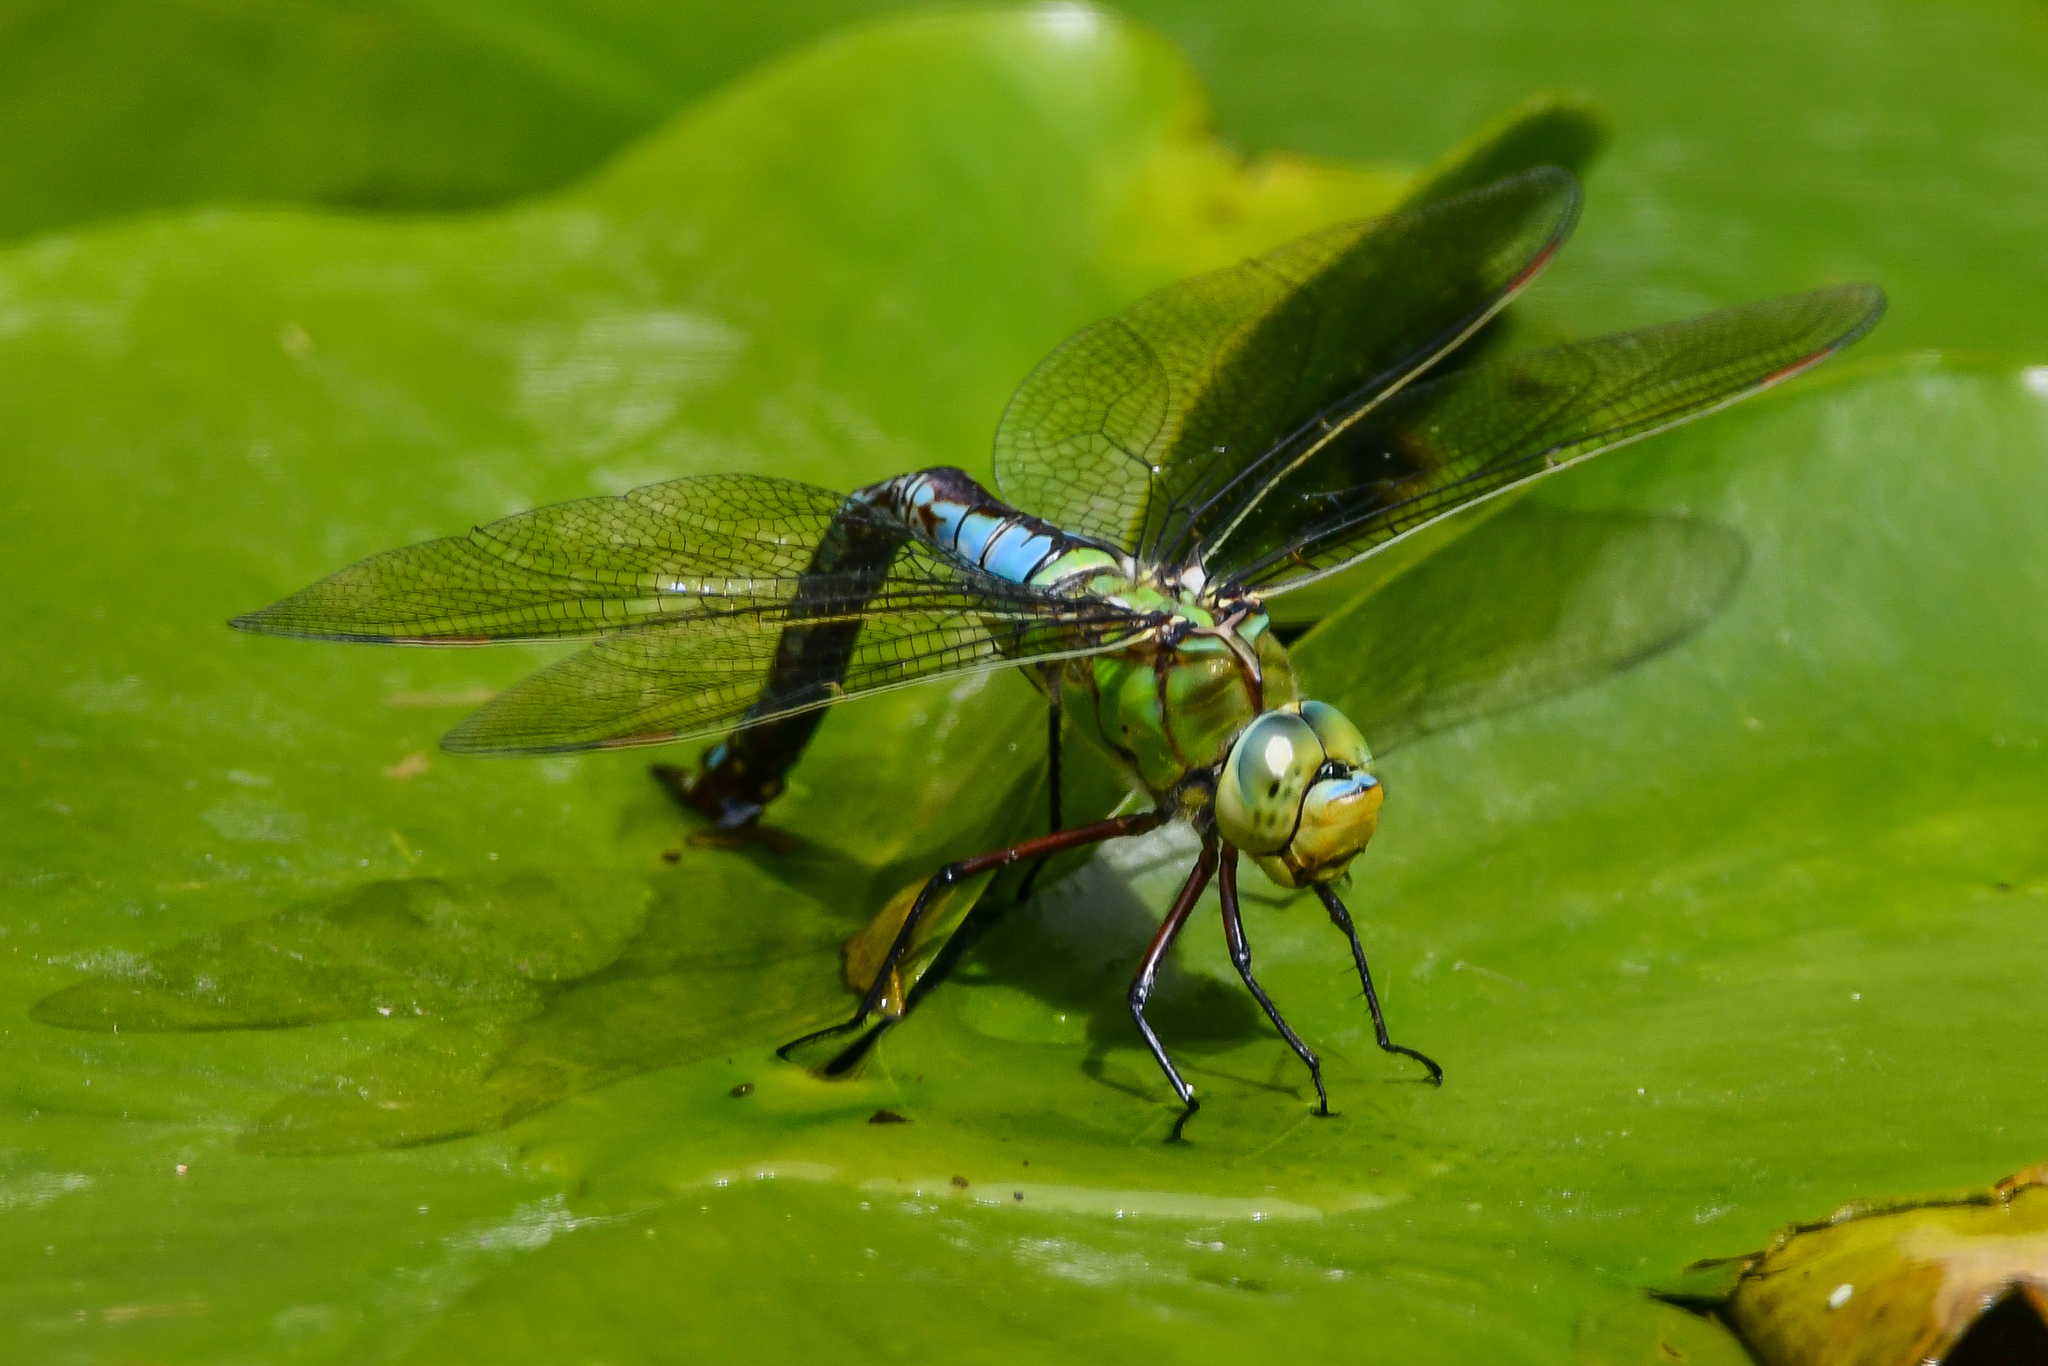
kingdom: Animalia
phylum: Arthropoda
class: Insecta
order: Odonata
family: Aeshnidae
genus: Anax
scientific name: Anax imperator
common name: Emperor dragonfly
